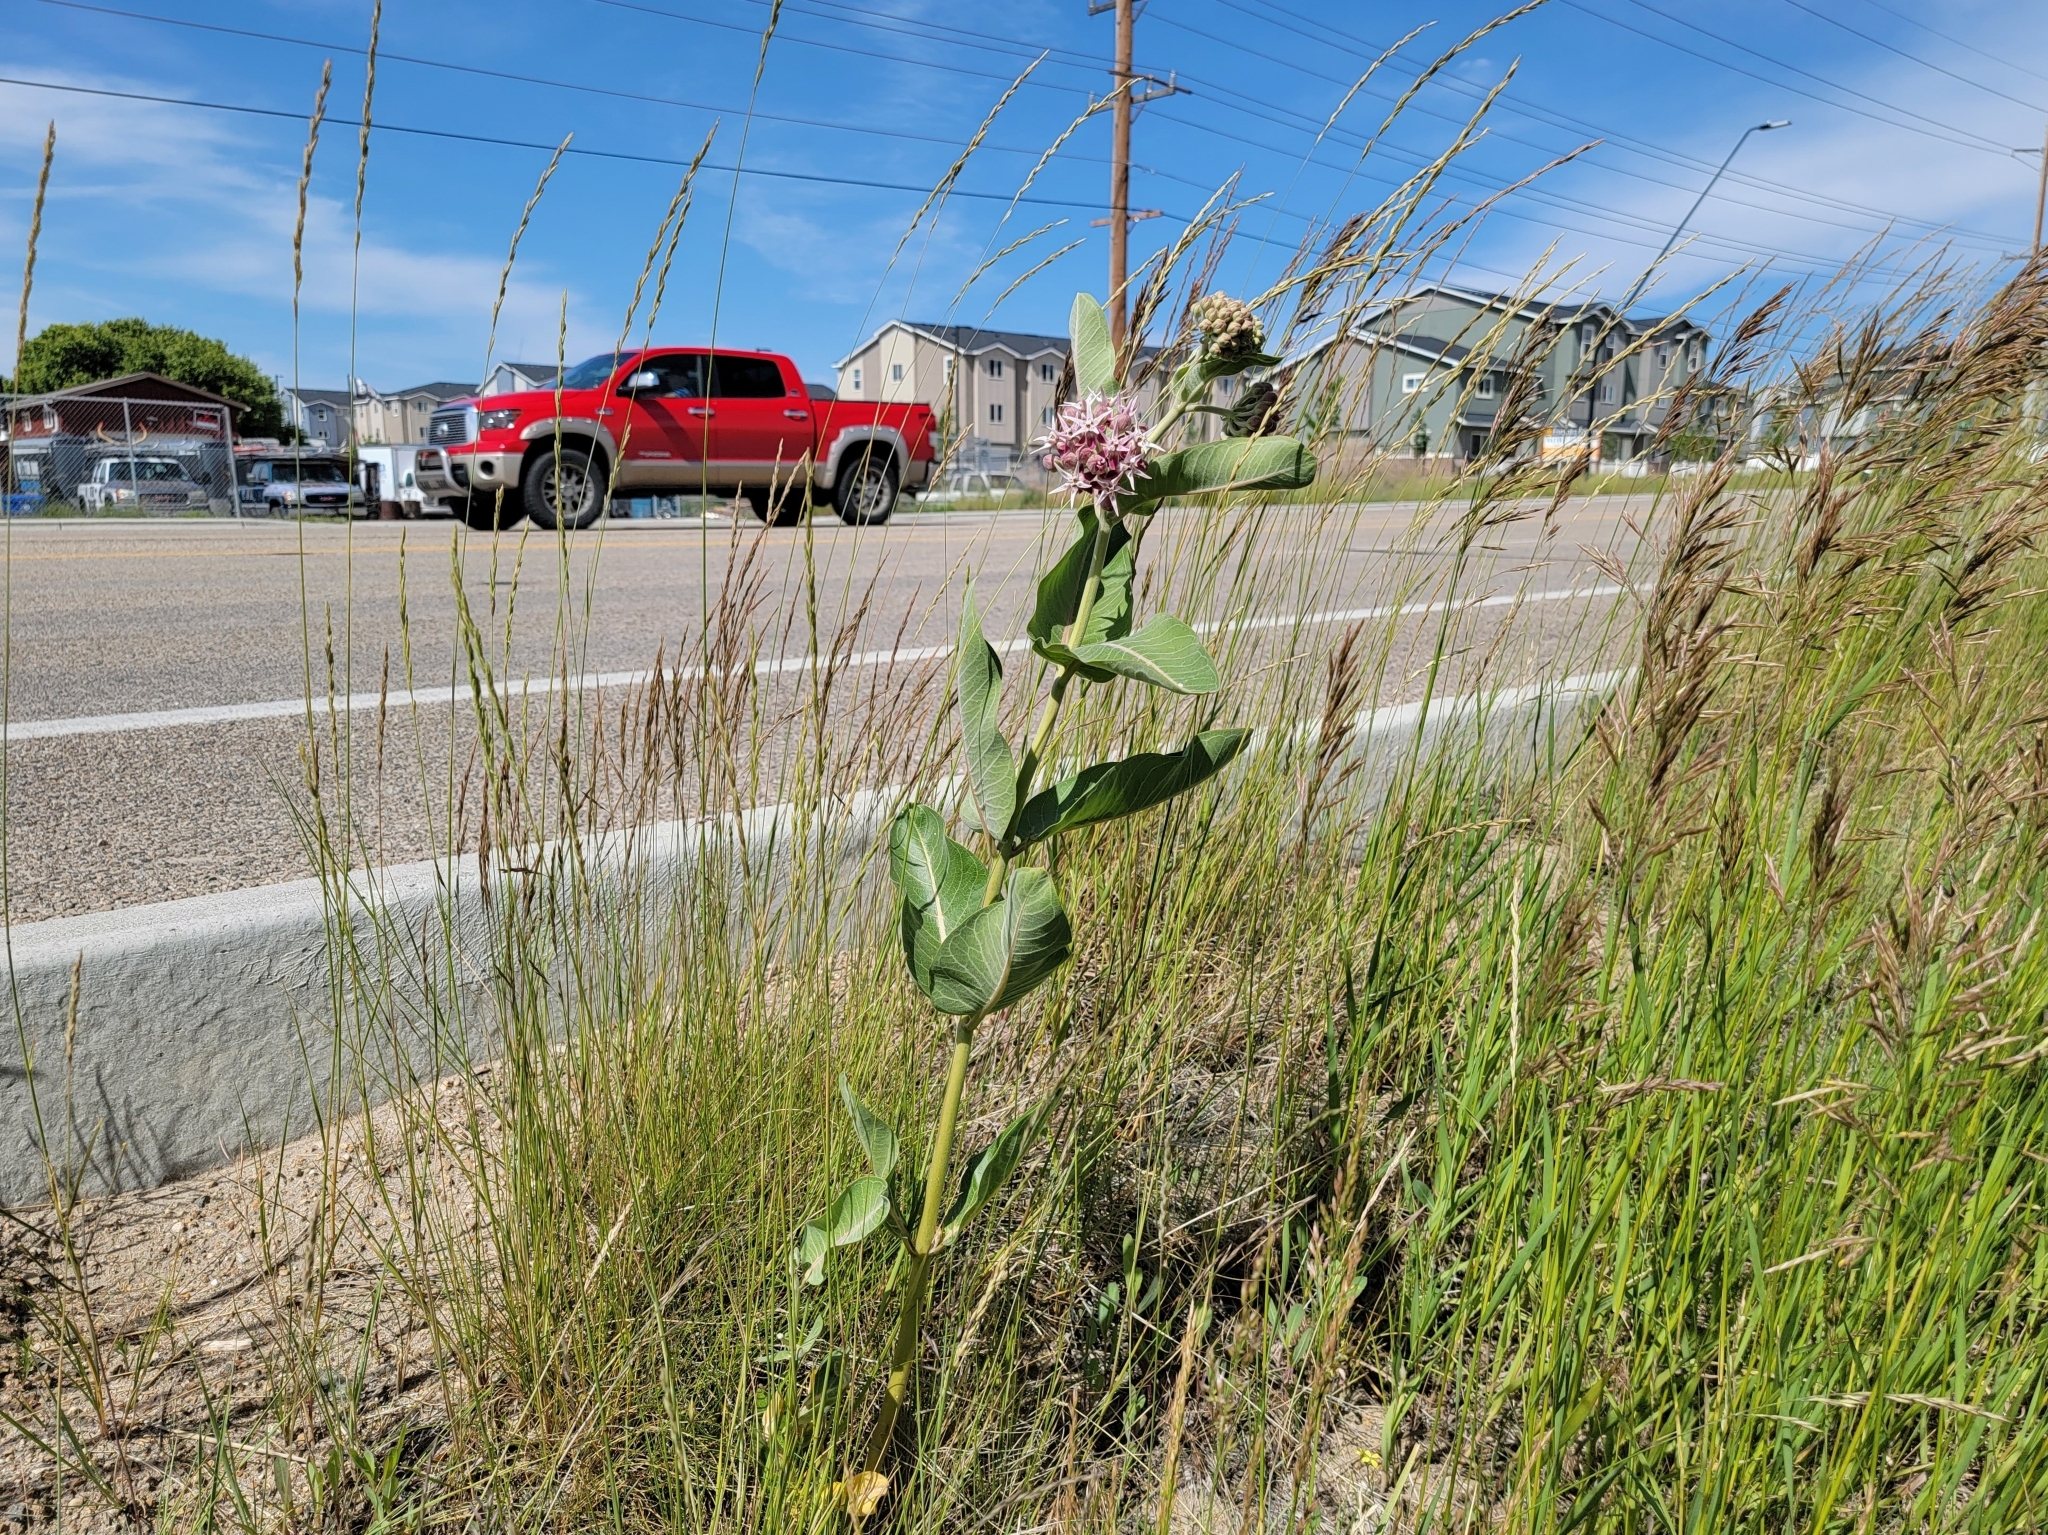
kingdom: Plantae
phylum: Tracheophyta
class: Magnoliopsida
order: Gentianales
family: Apocynaceae
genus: Asclepias
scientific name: Asclepias speciosa
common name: Showy milkweed
